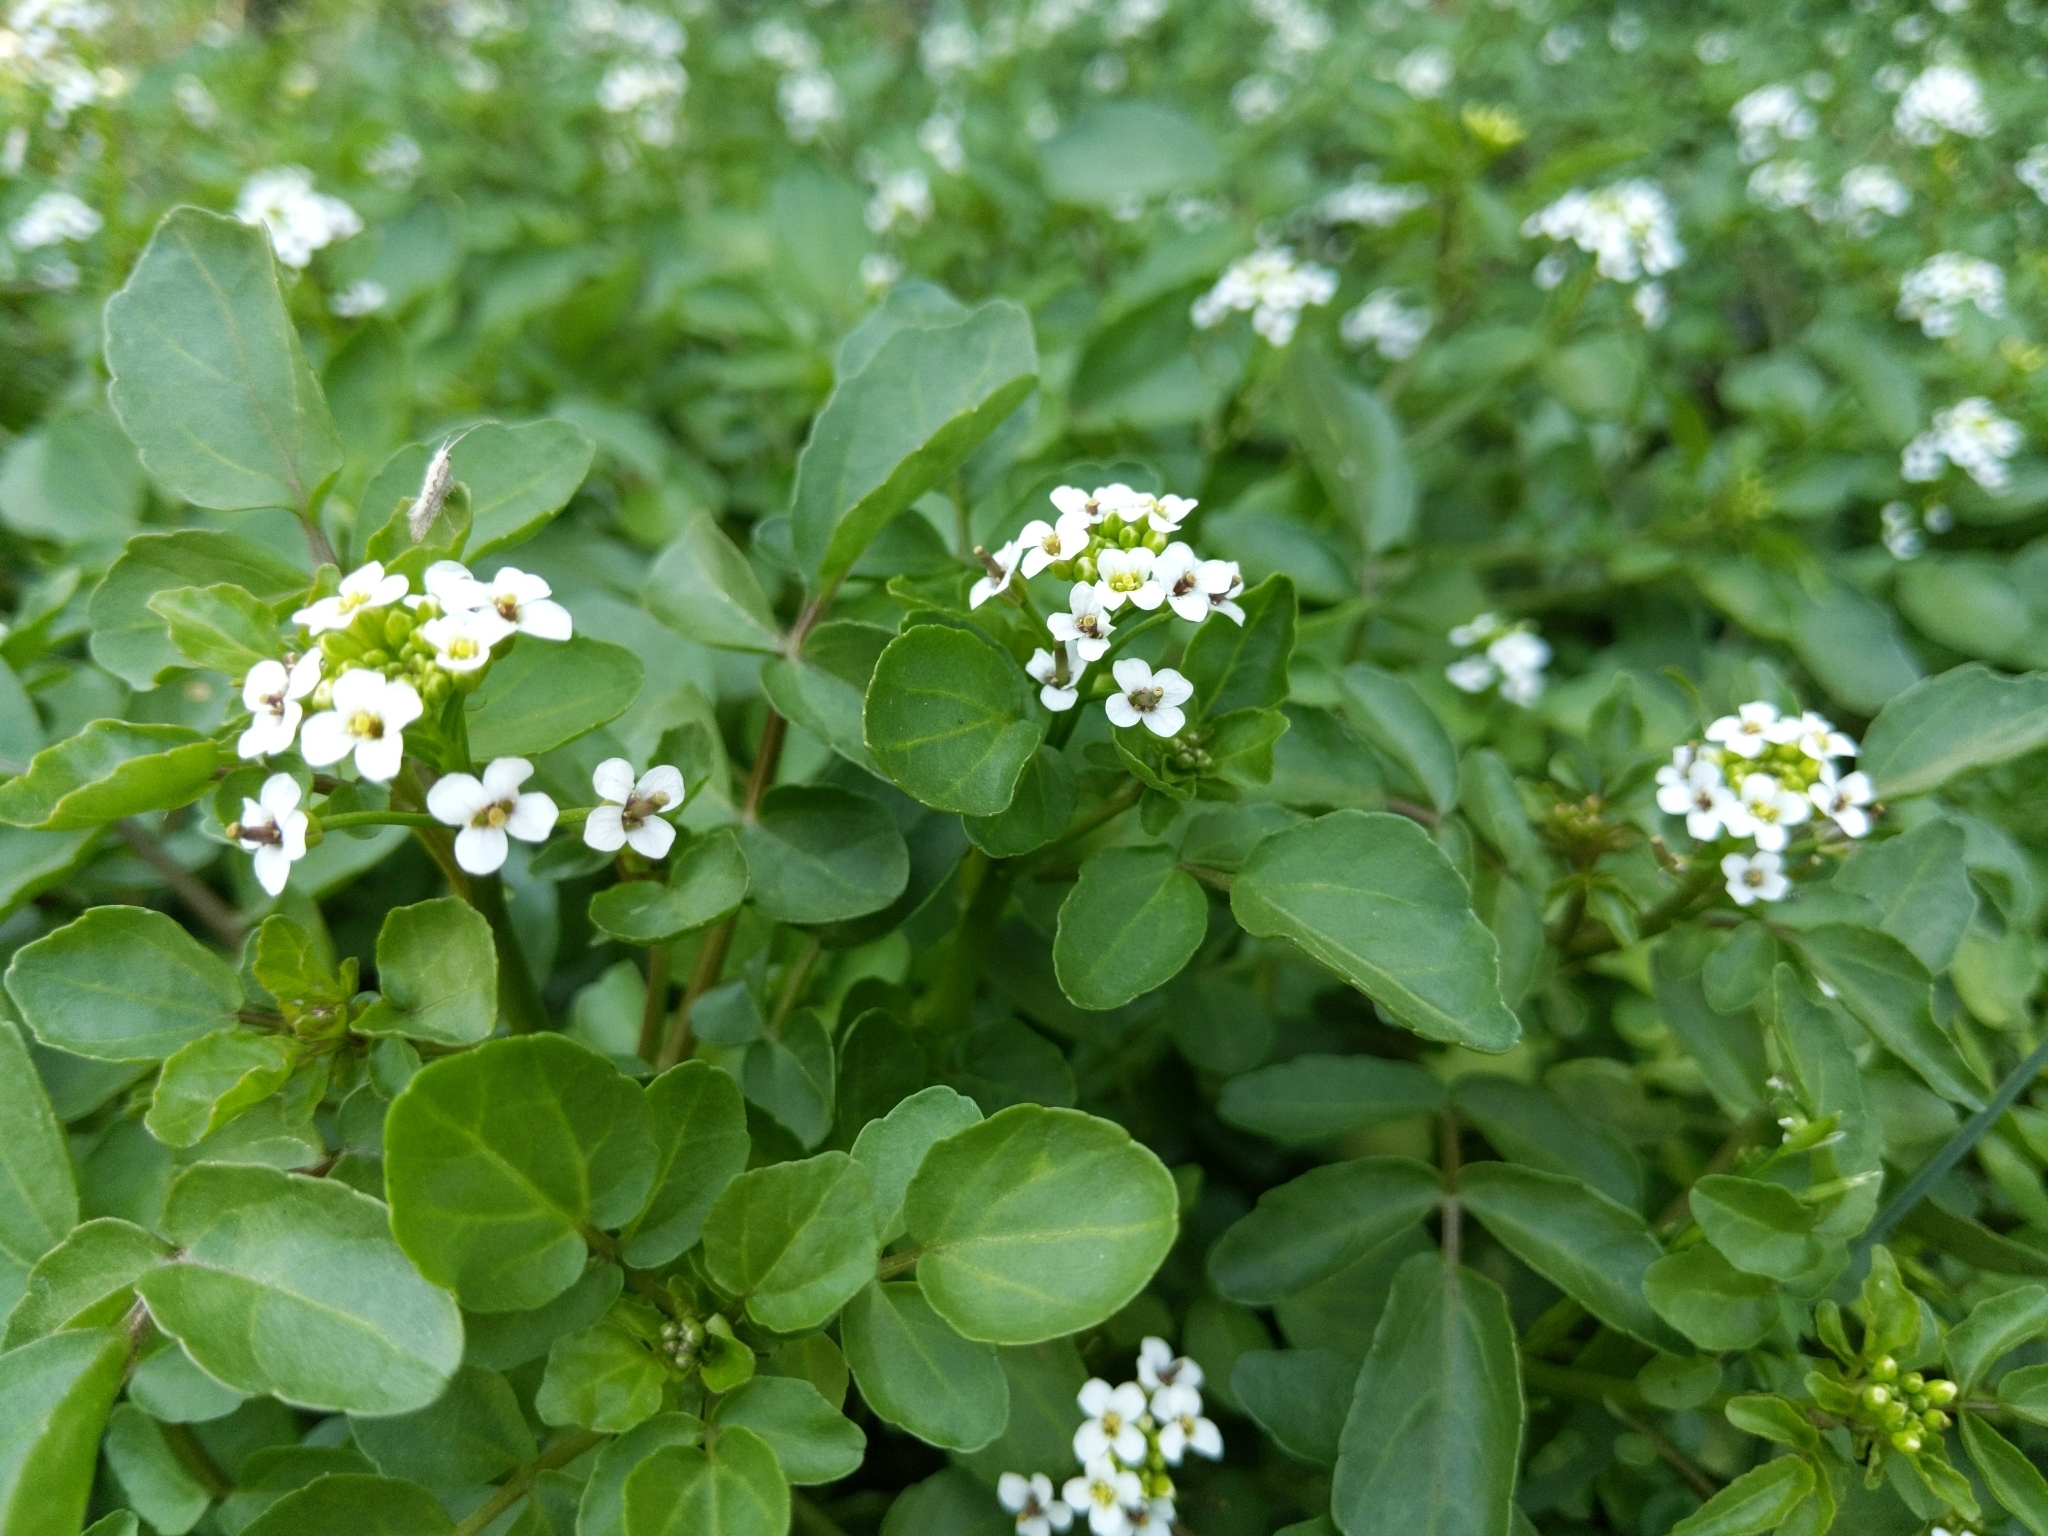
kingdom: Plantae
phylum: Tracheophyta
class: Magnoliopsida
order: Brassicales
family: Brassicaceae
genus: Nasturtium
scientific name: Nasturtium officinale
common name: Watercress
